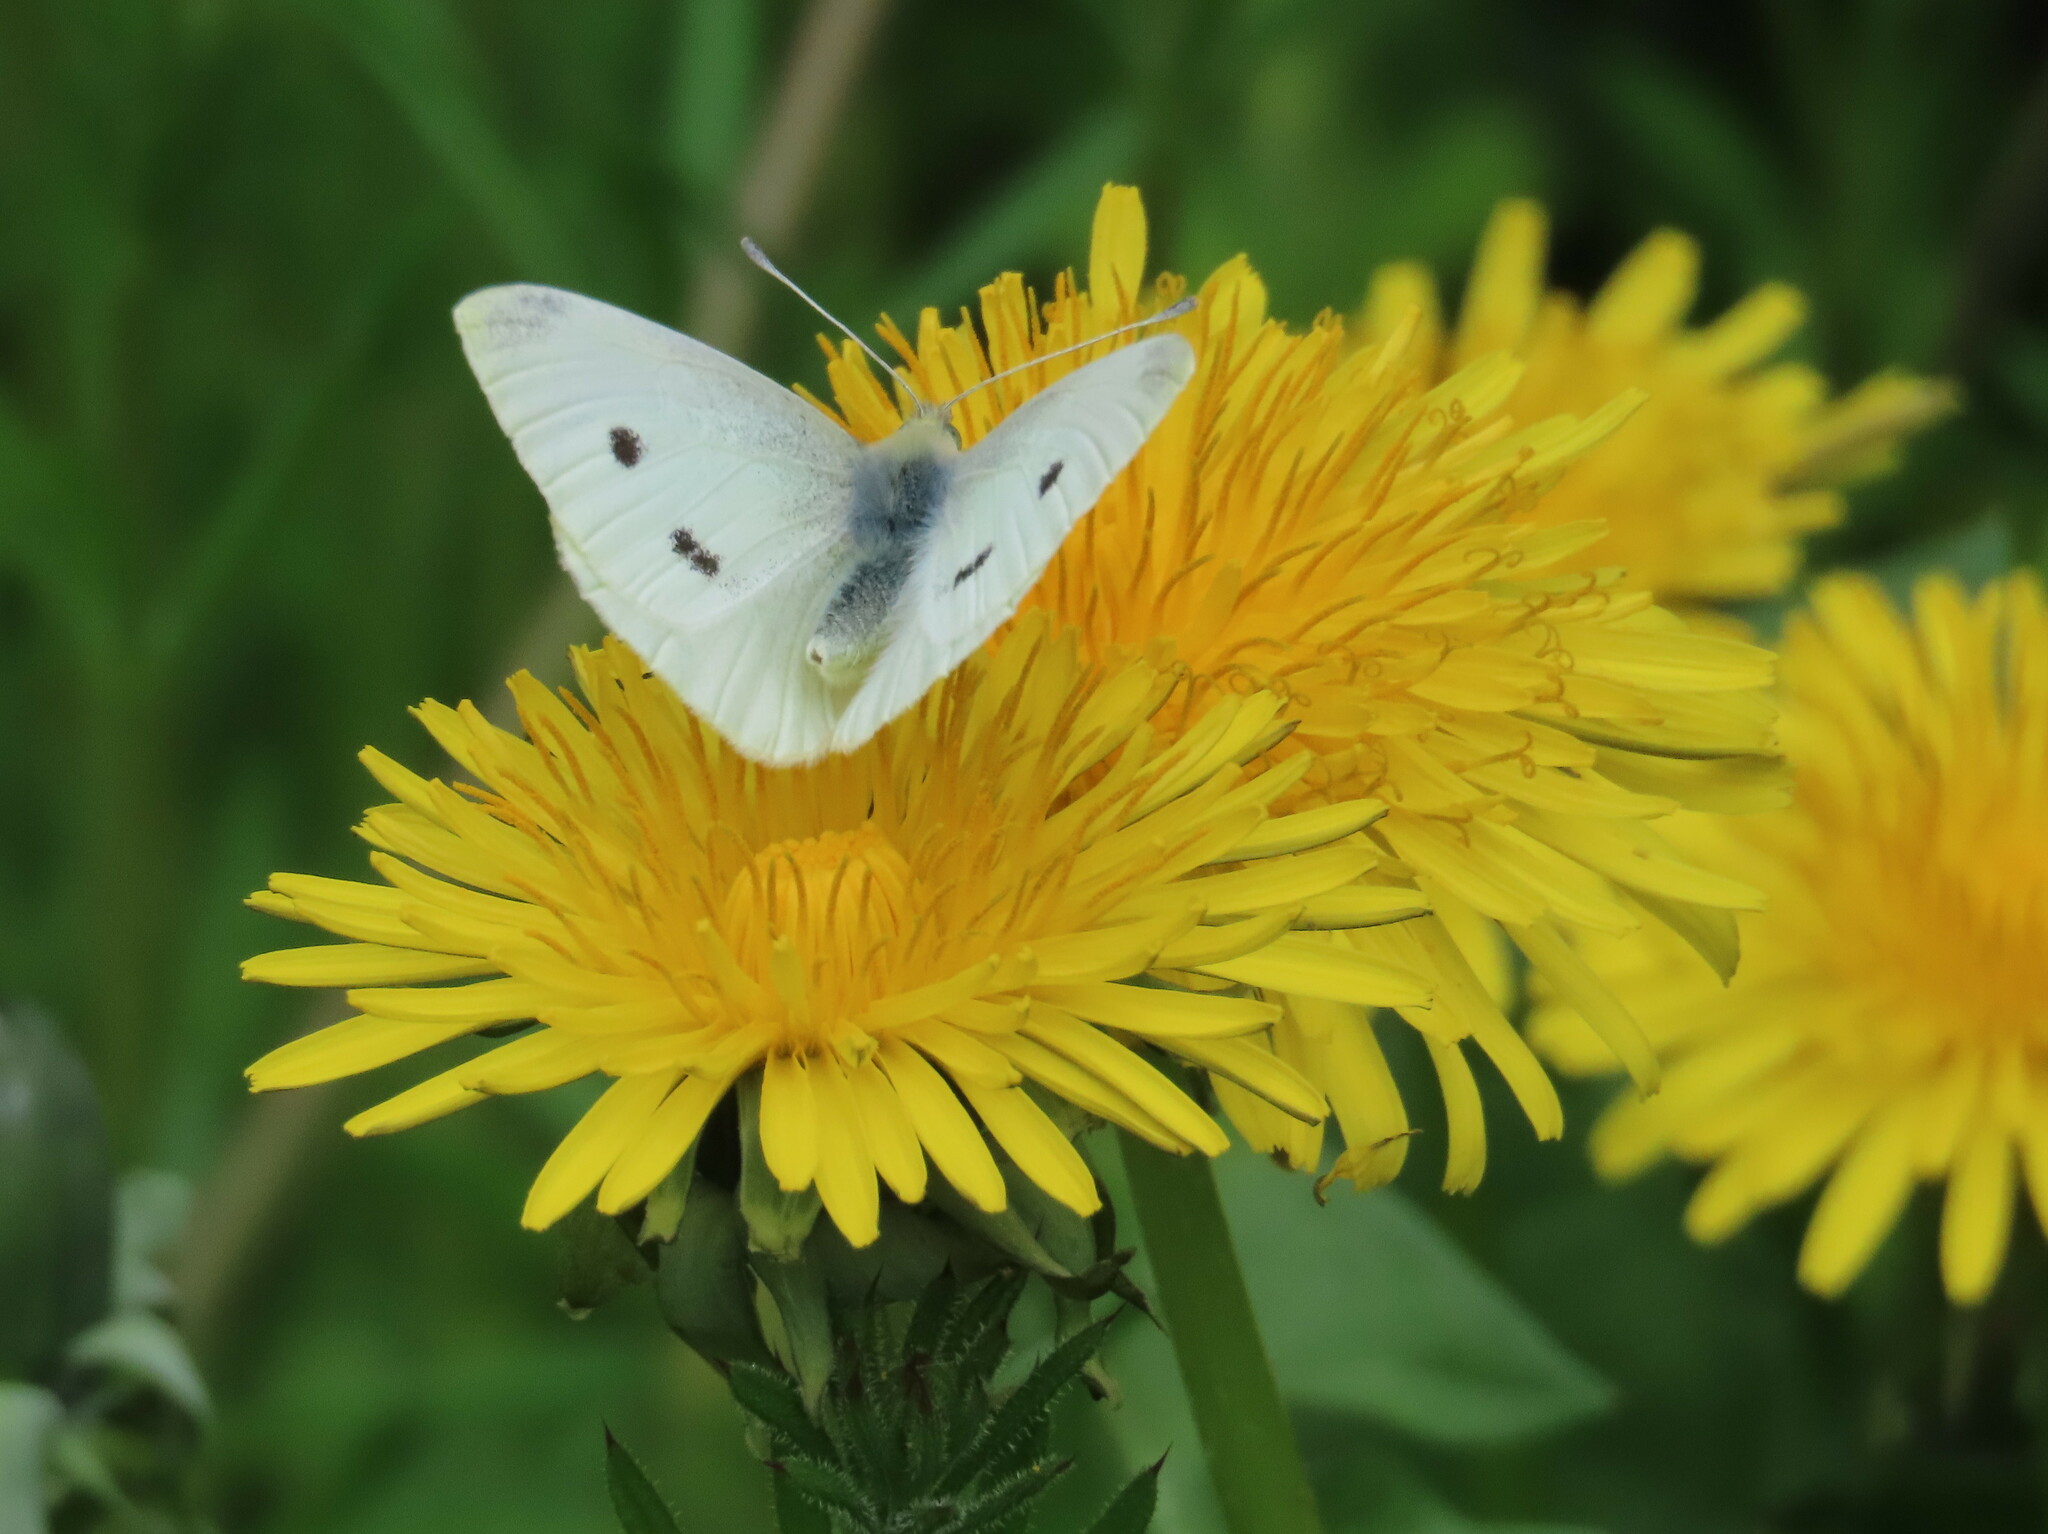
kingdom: Animalia
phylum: Arthropoda
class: Insecta
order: Lepidoptera
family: Pieridae
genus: Pieris
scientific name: Pieris rapae
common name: Small white
